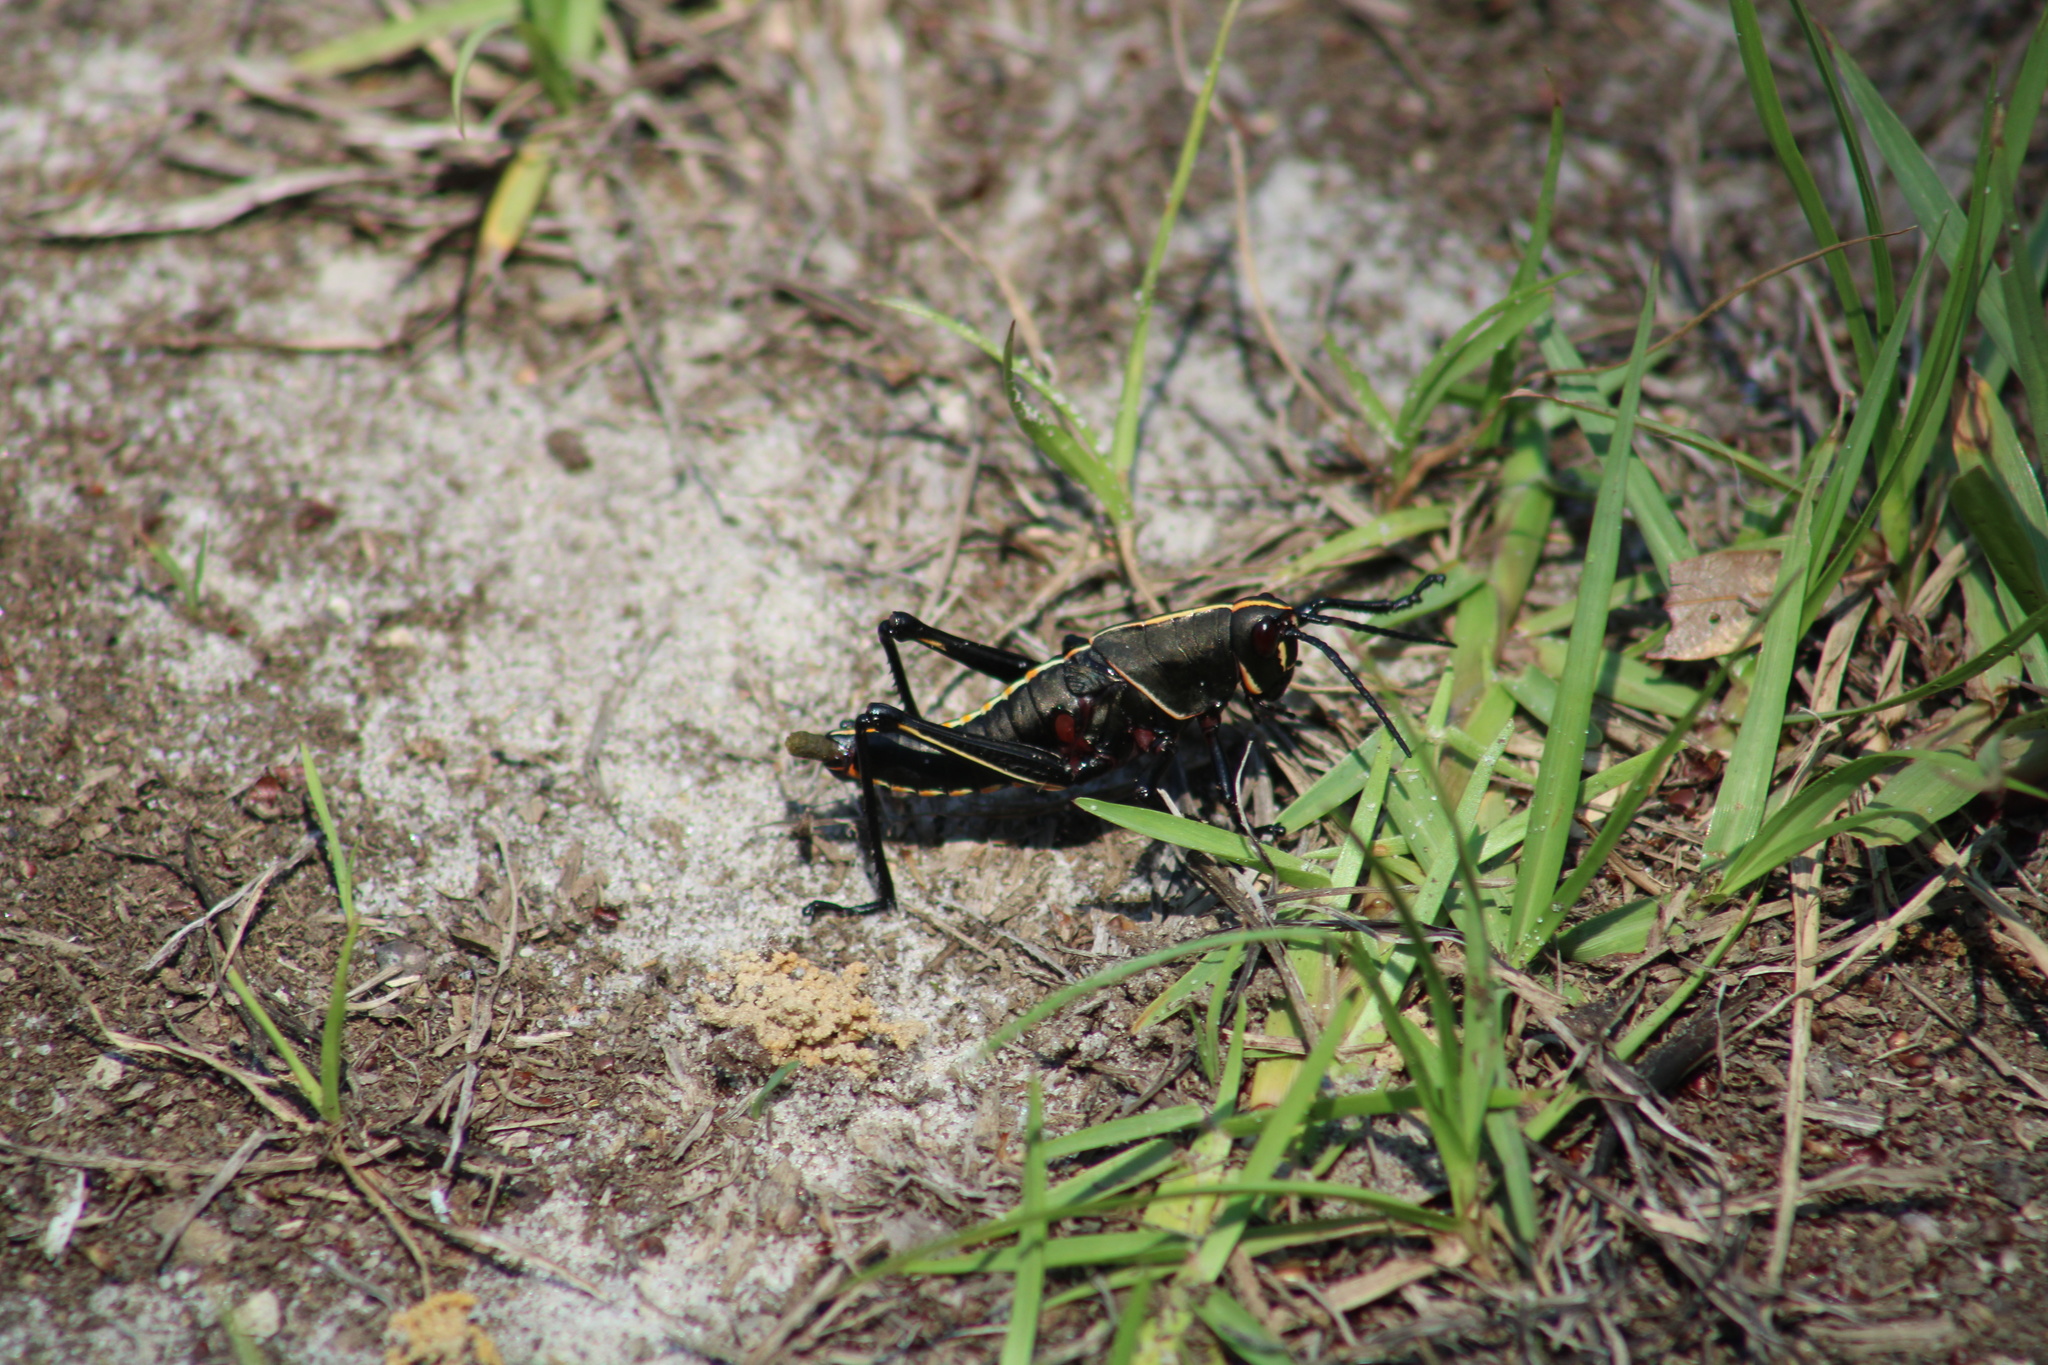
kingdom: Animalia
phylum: Arthropoda
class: Insecta
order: Orthoptera
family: Romaleidae
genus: Romalea
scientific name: Romalea microptera
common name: Eastern lubber grasshopper
